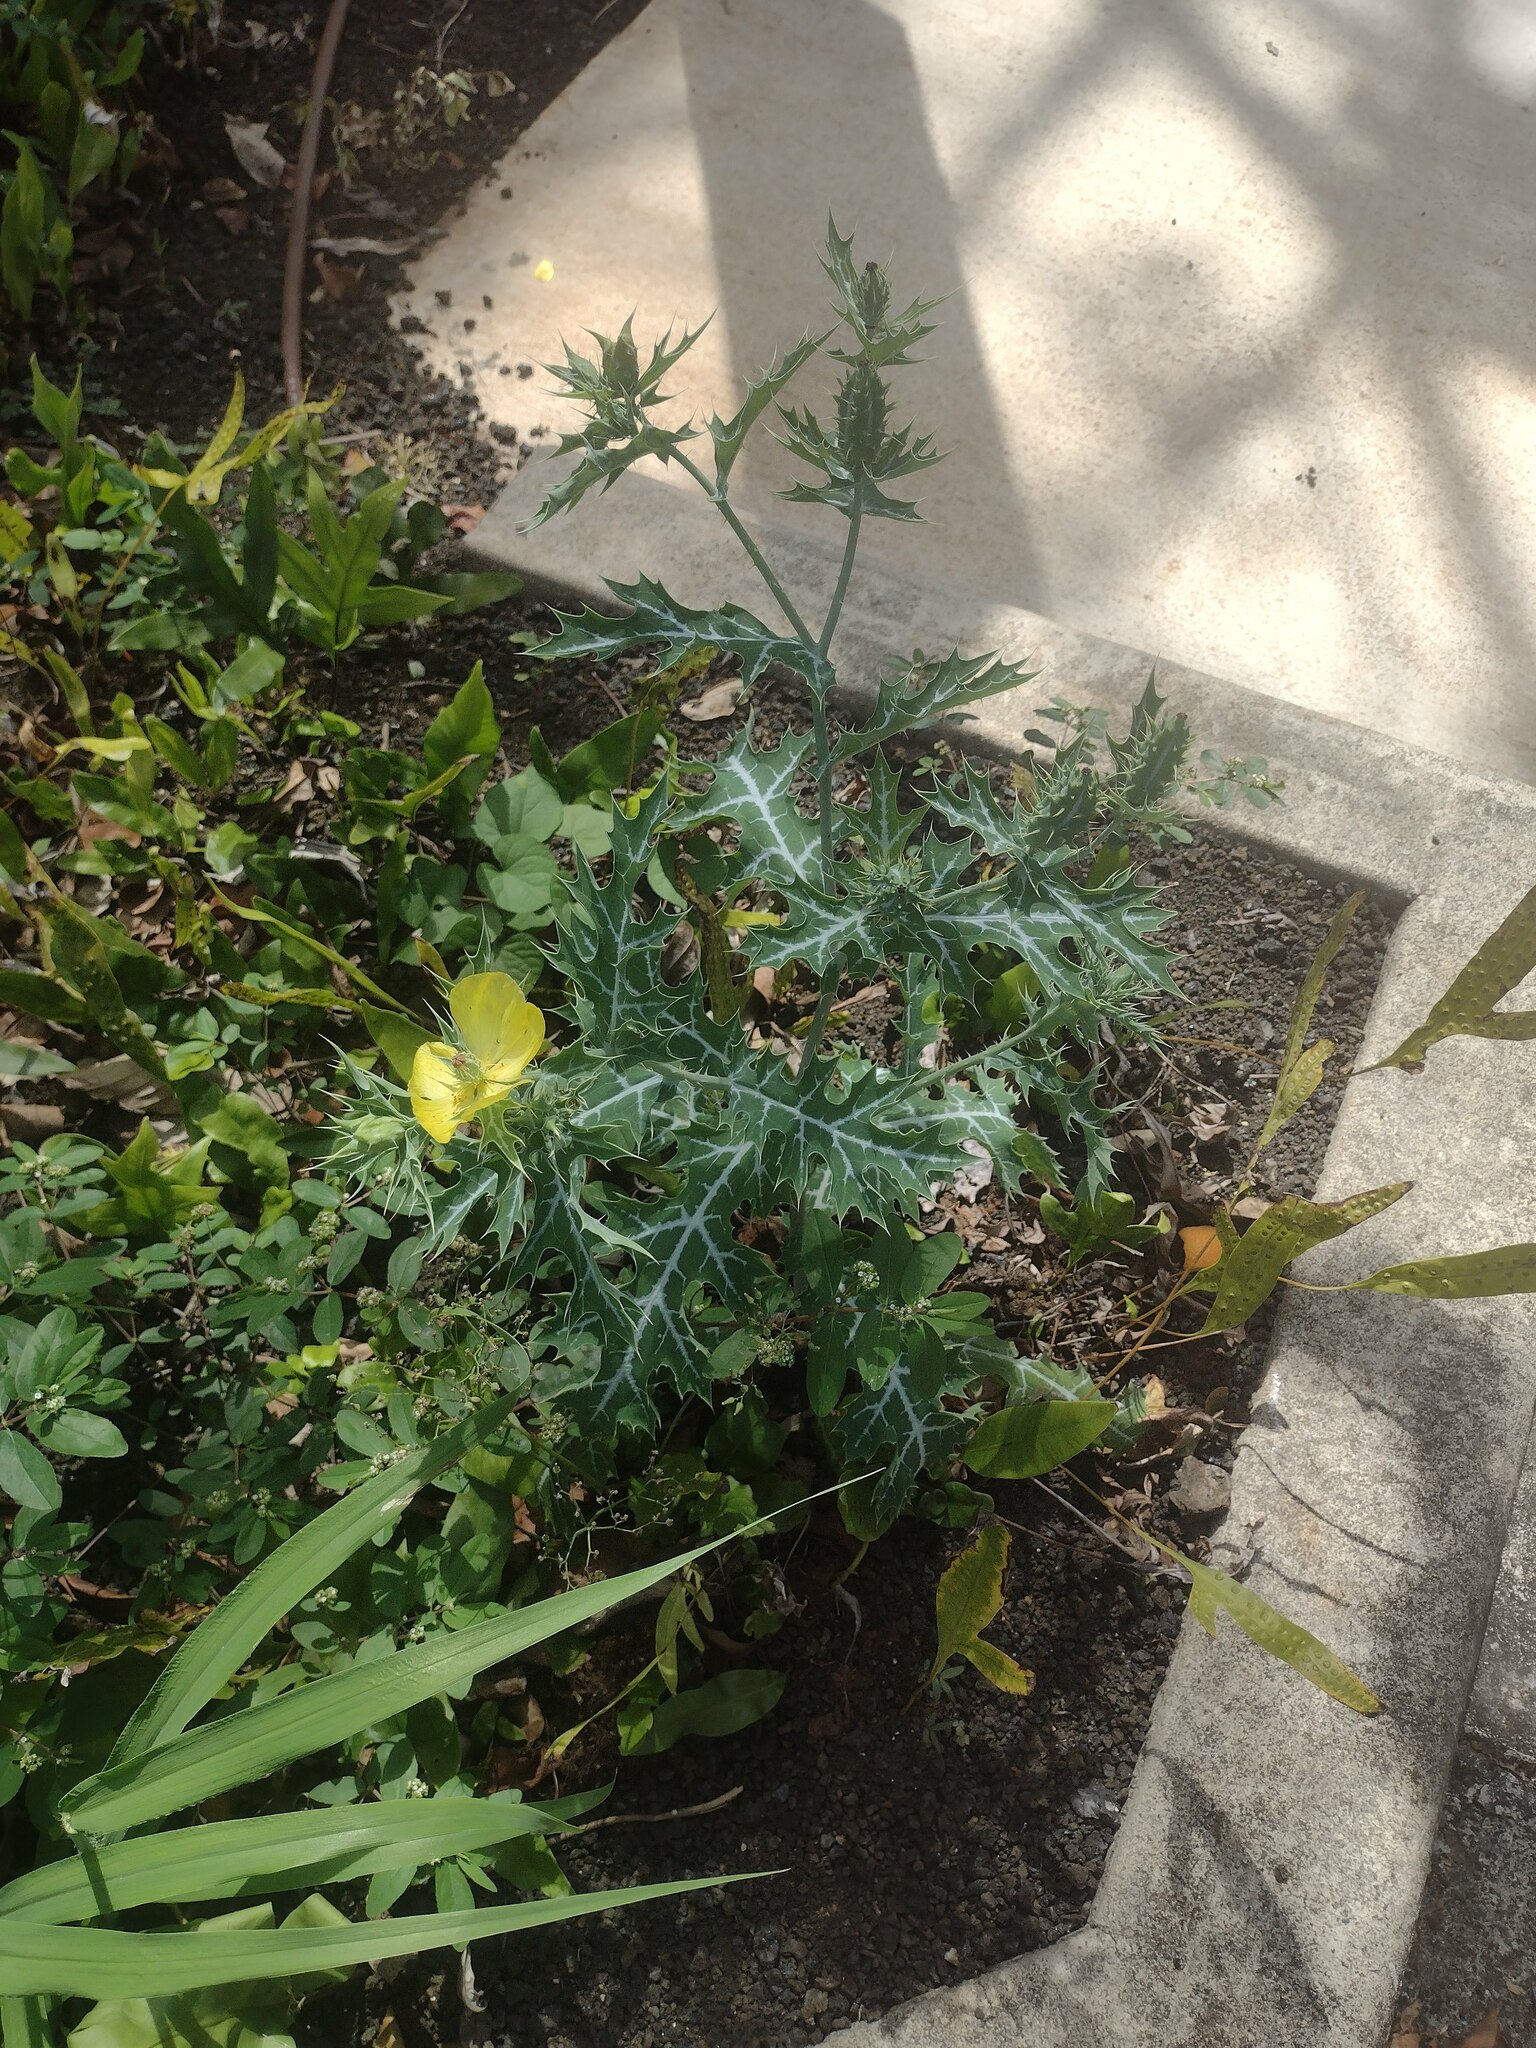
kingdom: Plantae
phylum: Tracheophyta
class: Magnoliopsida
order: Ranunculales
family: Papaveraceae
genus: Argemone
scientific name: Argemone mexicana
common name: Mexican poppy
